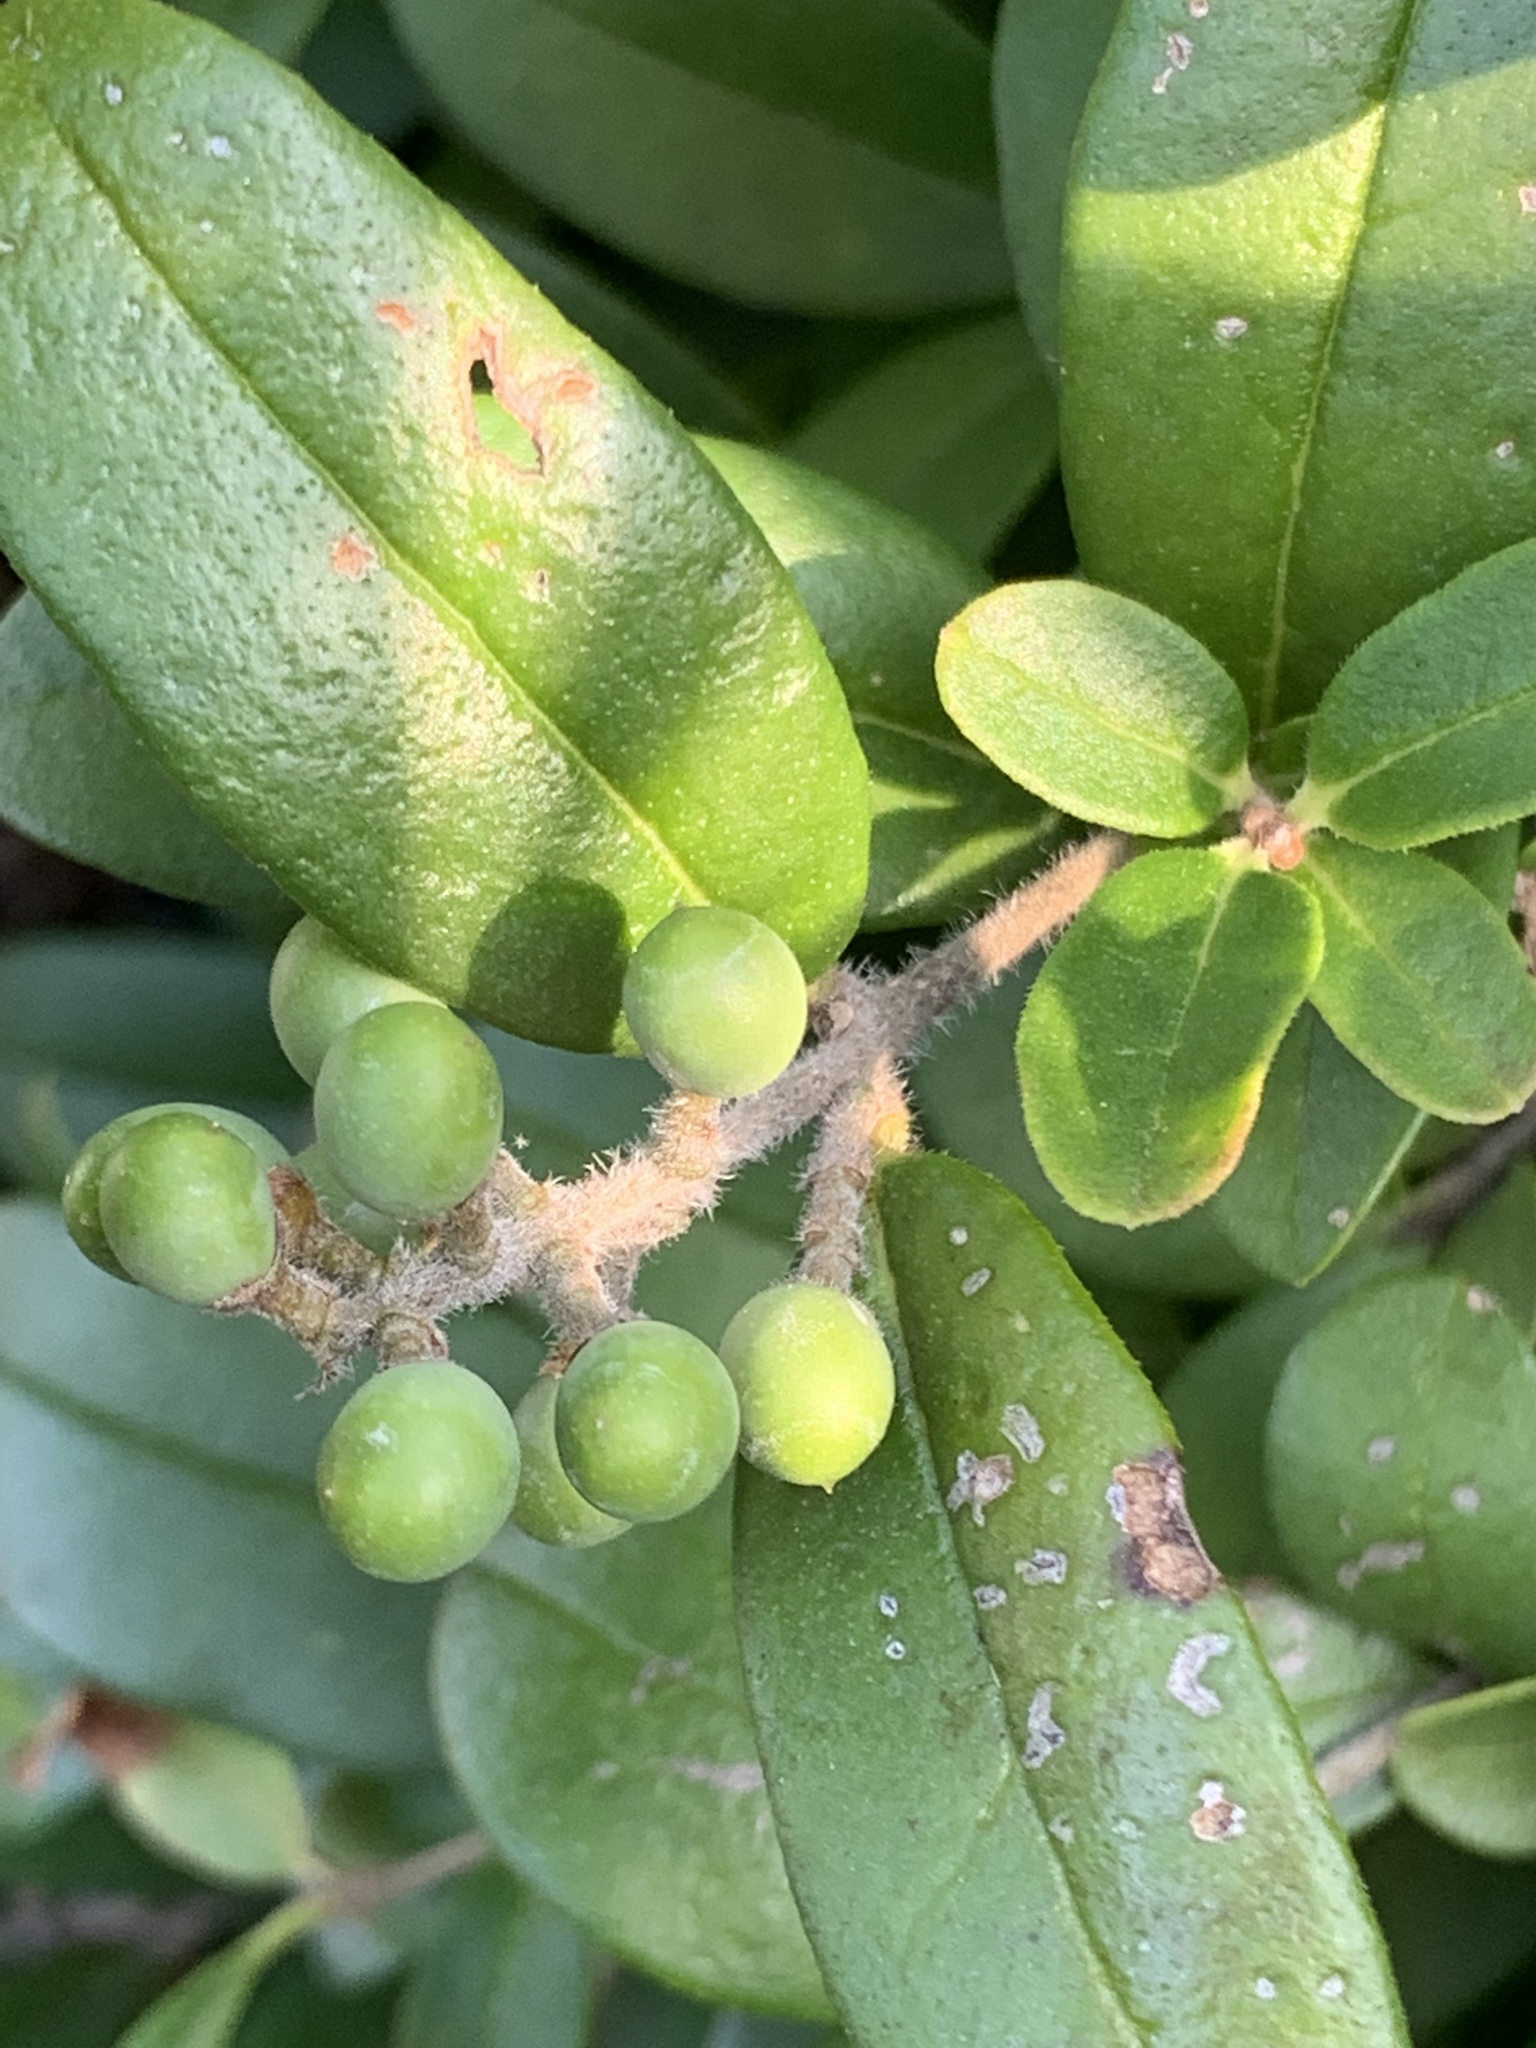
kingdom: Plantae
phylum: Tracheophyta
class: Magnoliopsida
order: Lamiales
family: Oleaceae
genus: Ligustrum
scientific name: Ligustrum obtusifolium
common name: Border privet
